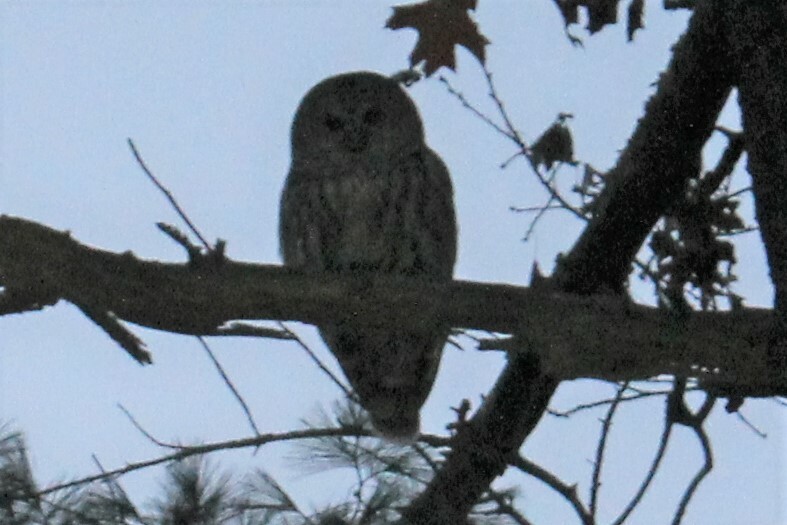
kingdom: Animalia
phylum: Chordata
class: Aves
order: Strigiformes
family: Strigidae
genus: Strix
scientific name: Strix varia
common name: Barred owl
